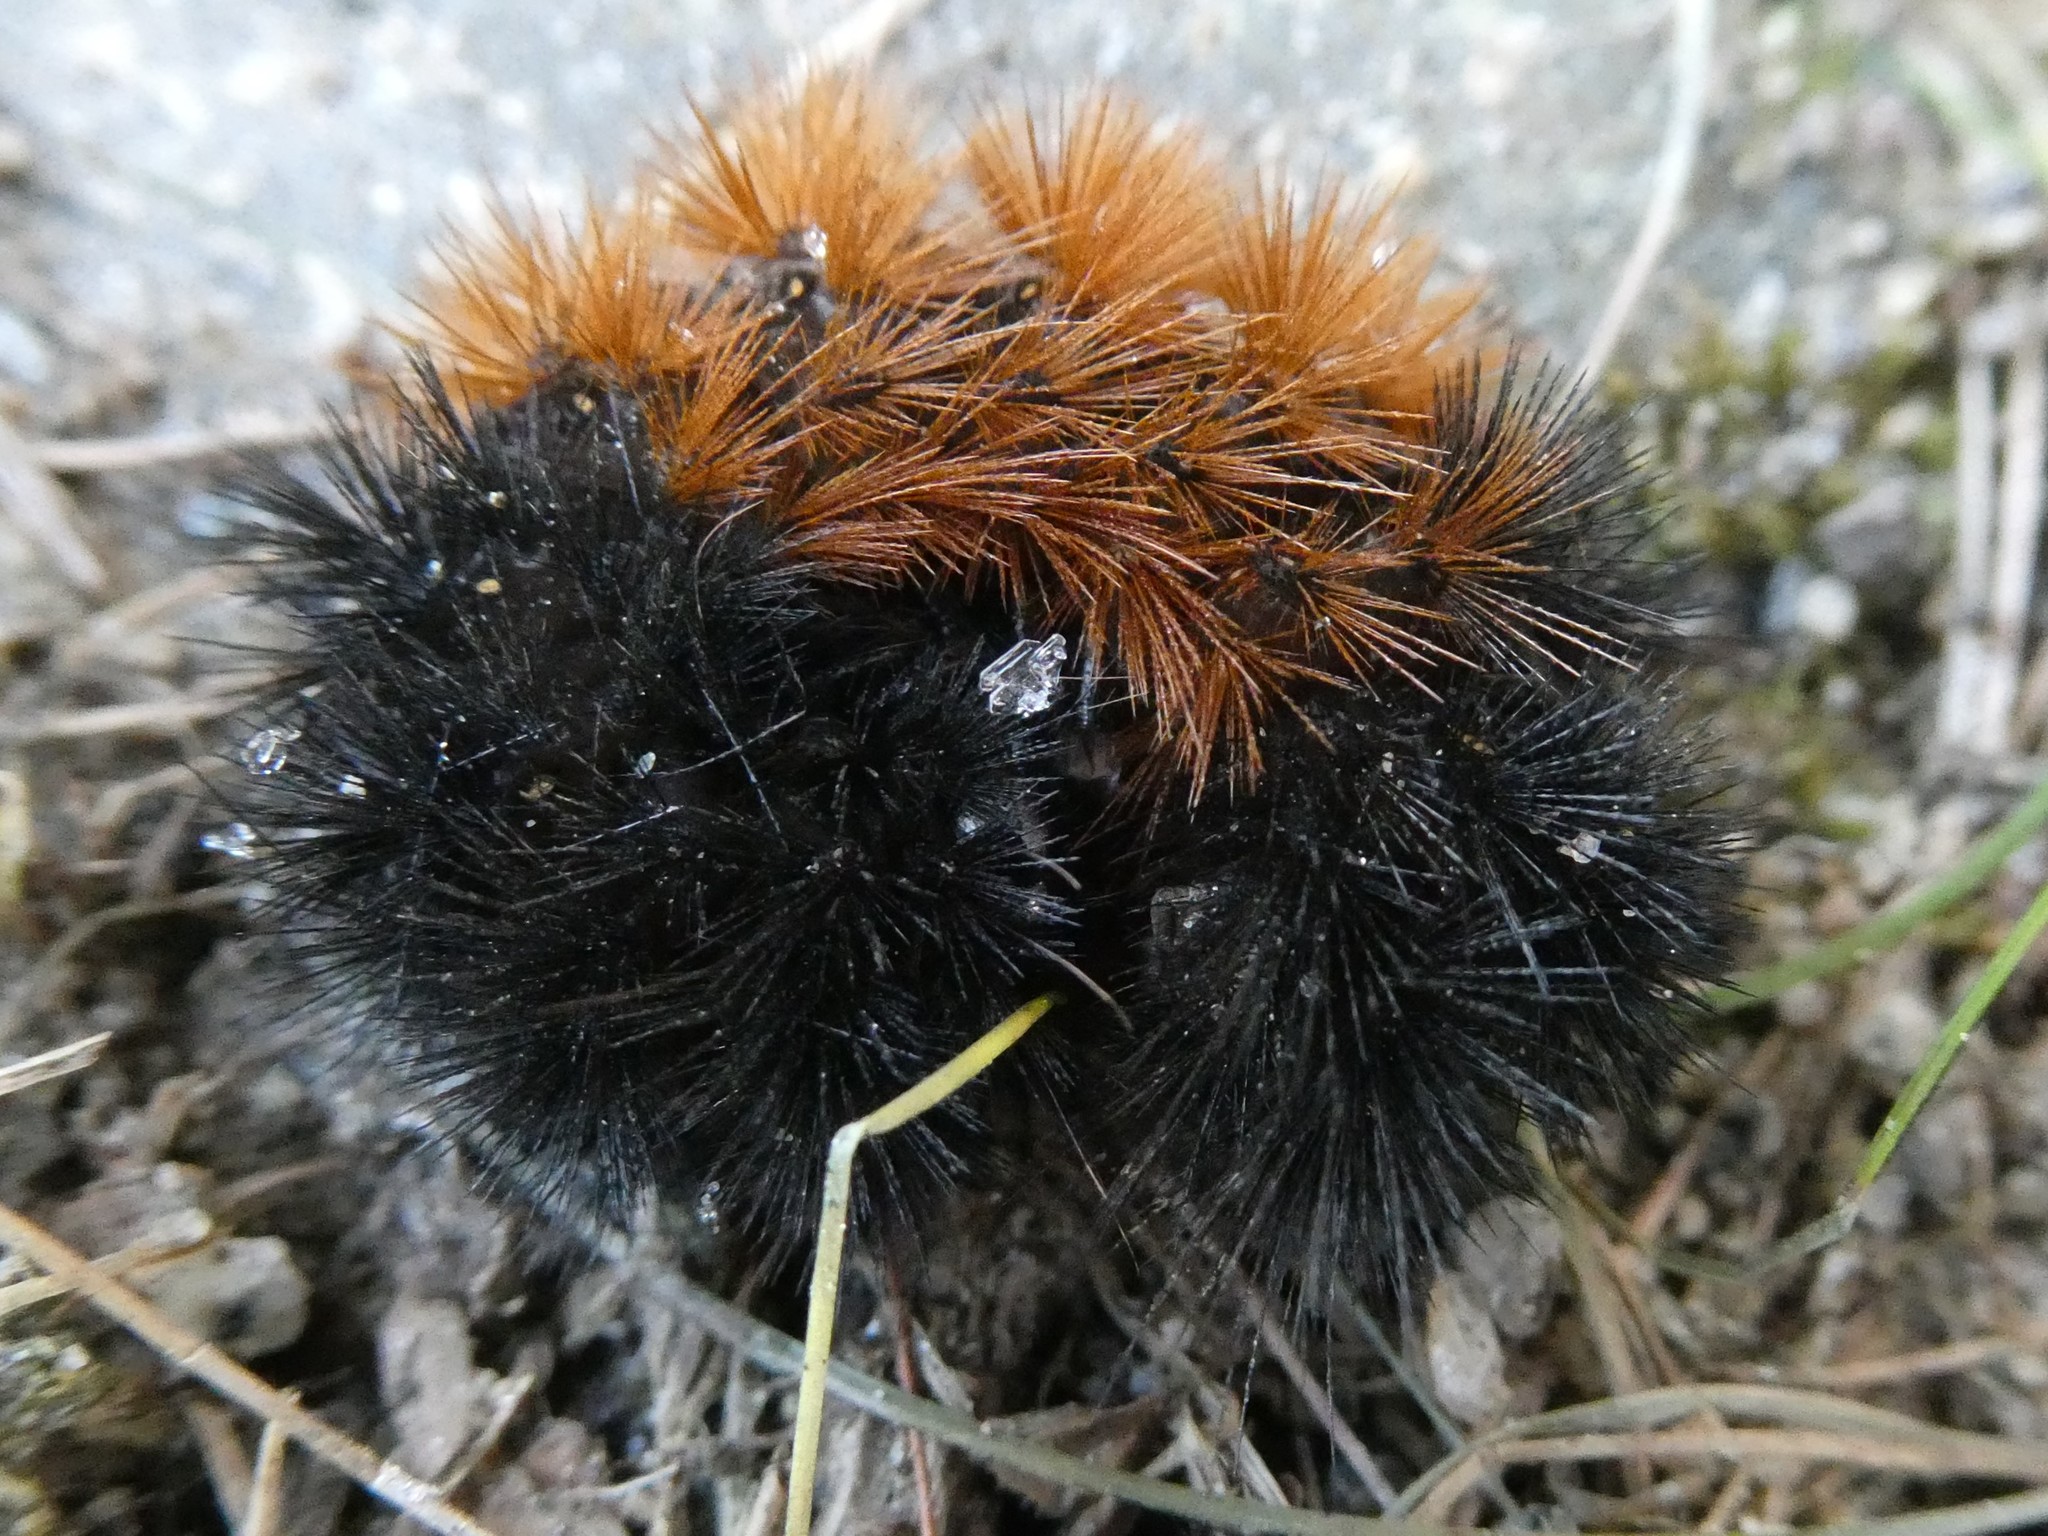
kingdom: Animalia
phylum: Arthropoda
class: Insecta
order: Lepidoptera
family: Erebidae
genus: Pyrrharctia
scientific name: Pyrrharctia isabella
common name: Isabella tiger moth
